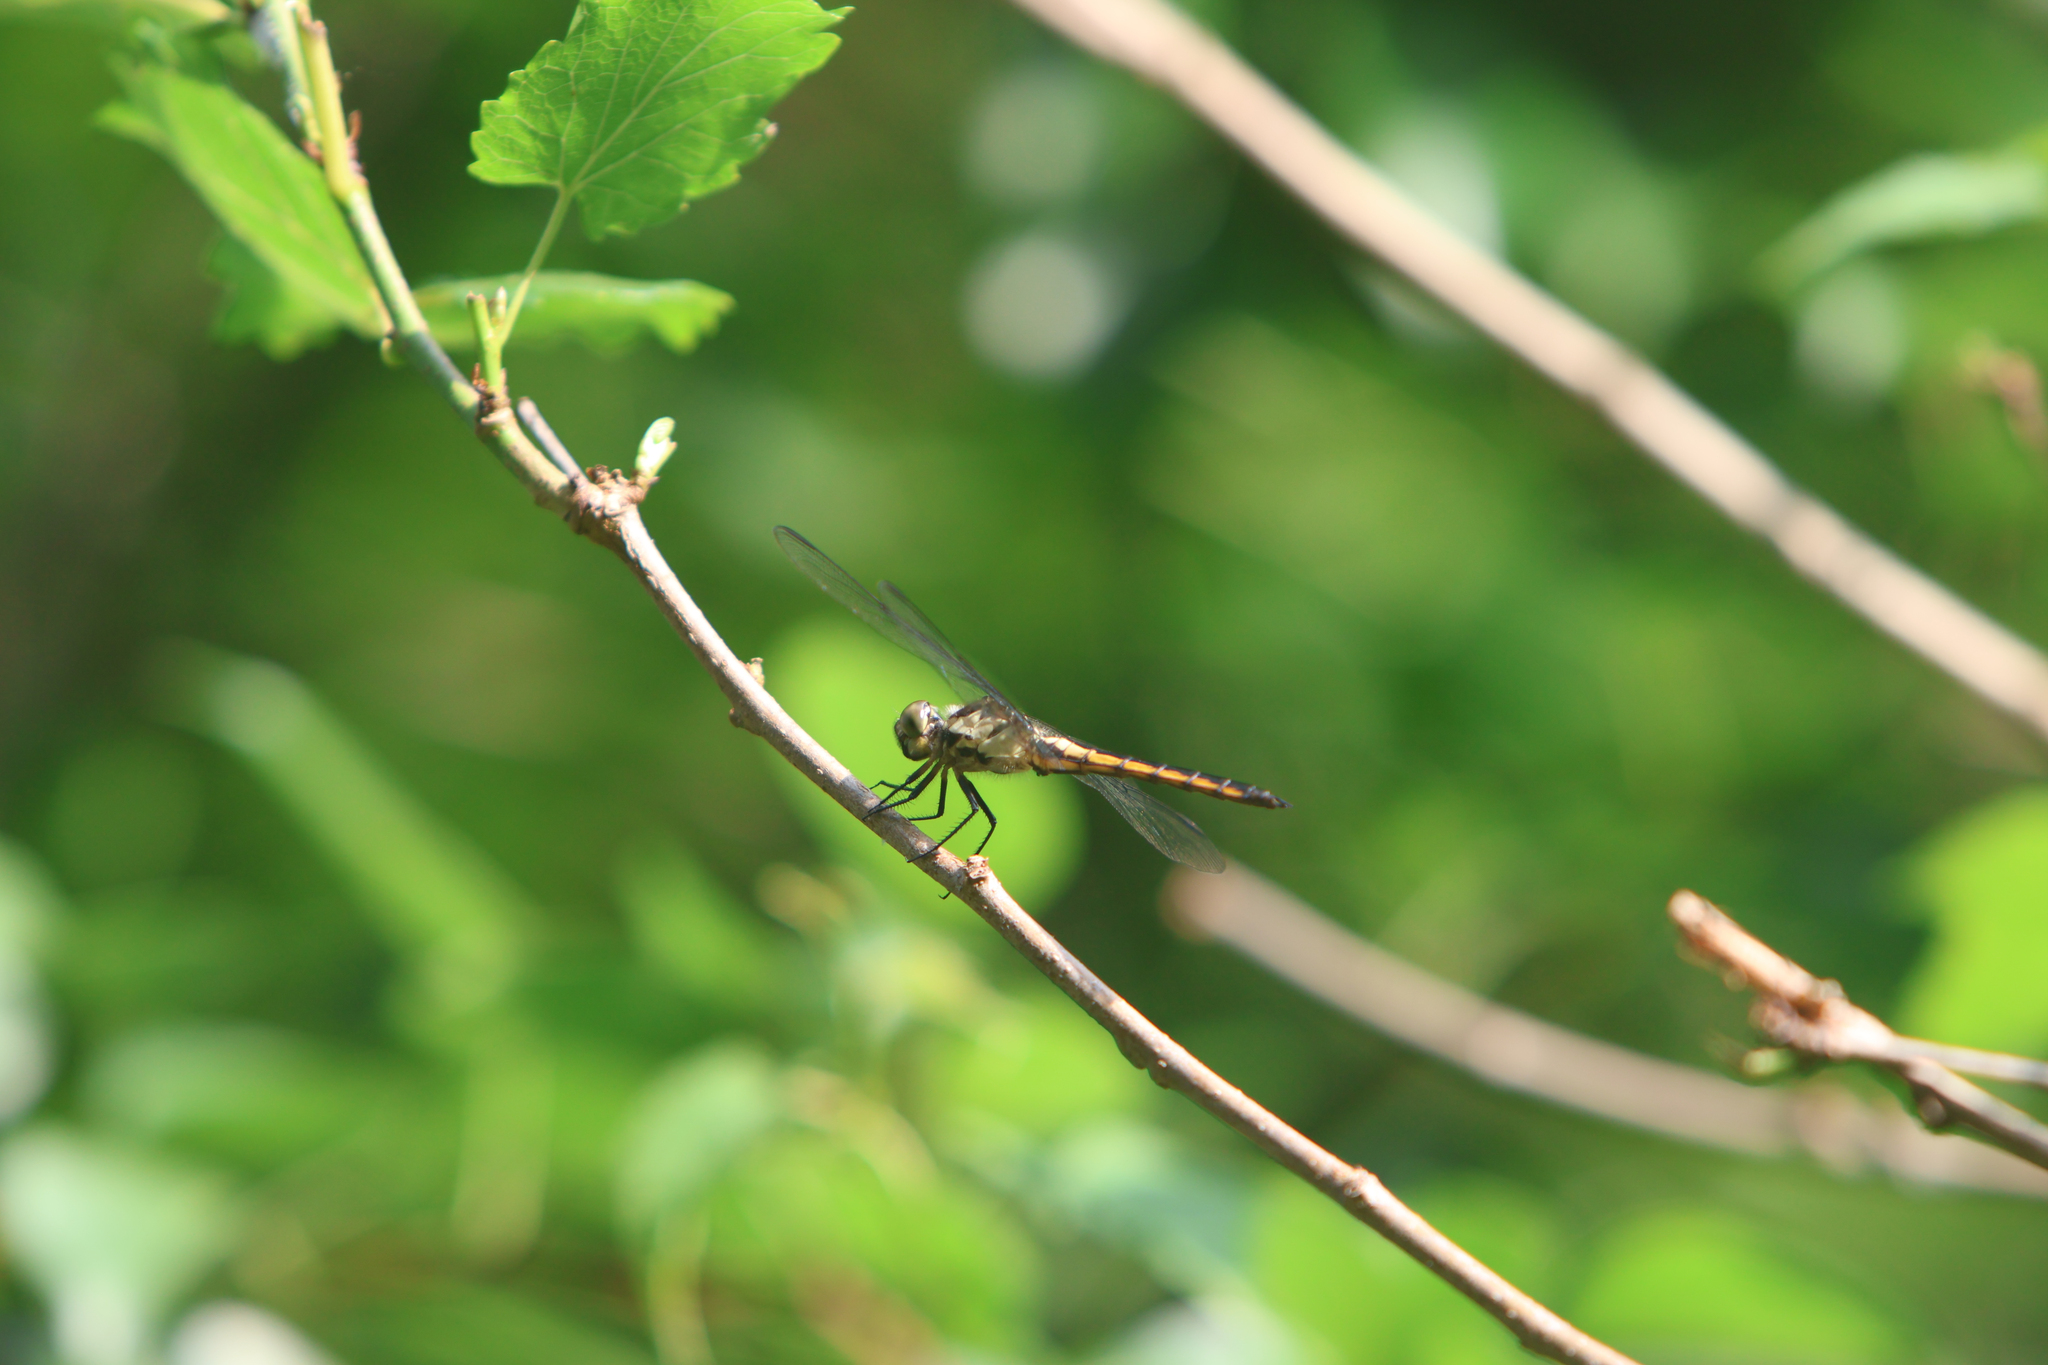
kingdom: Animalia
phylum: Arthropoda
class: Insecta
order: Odonata
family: Libellulidae
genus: Libellula
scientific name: Libellula incesta
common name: Slaty skimmer
